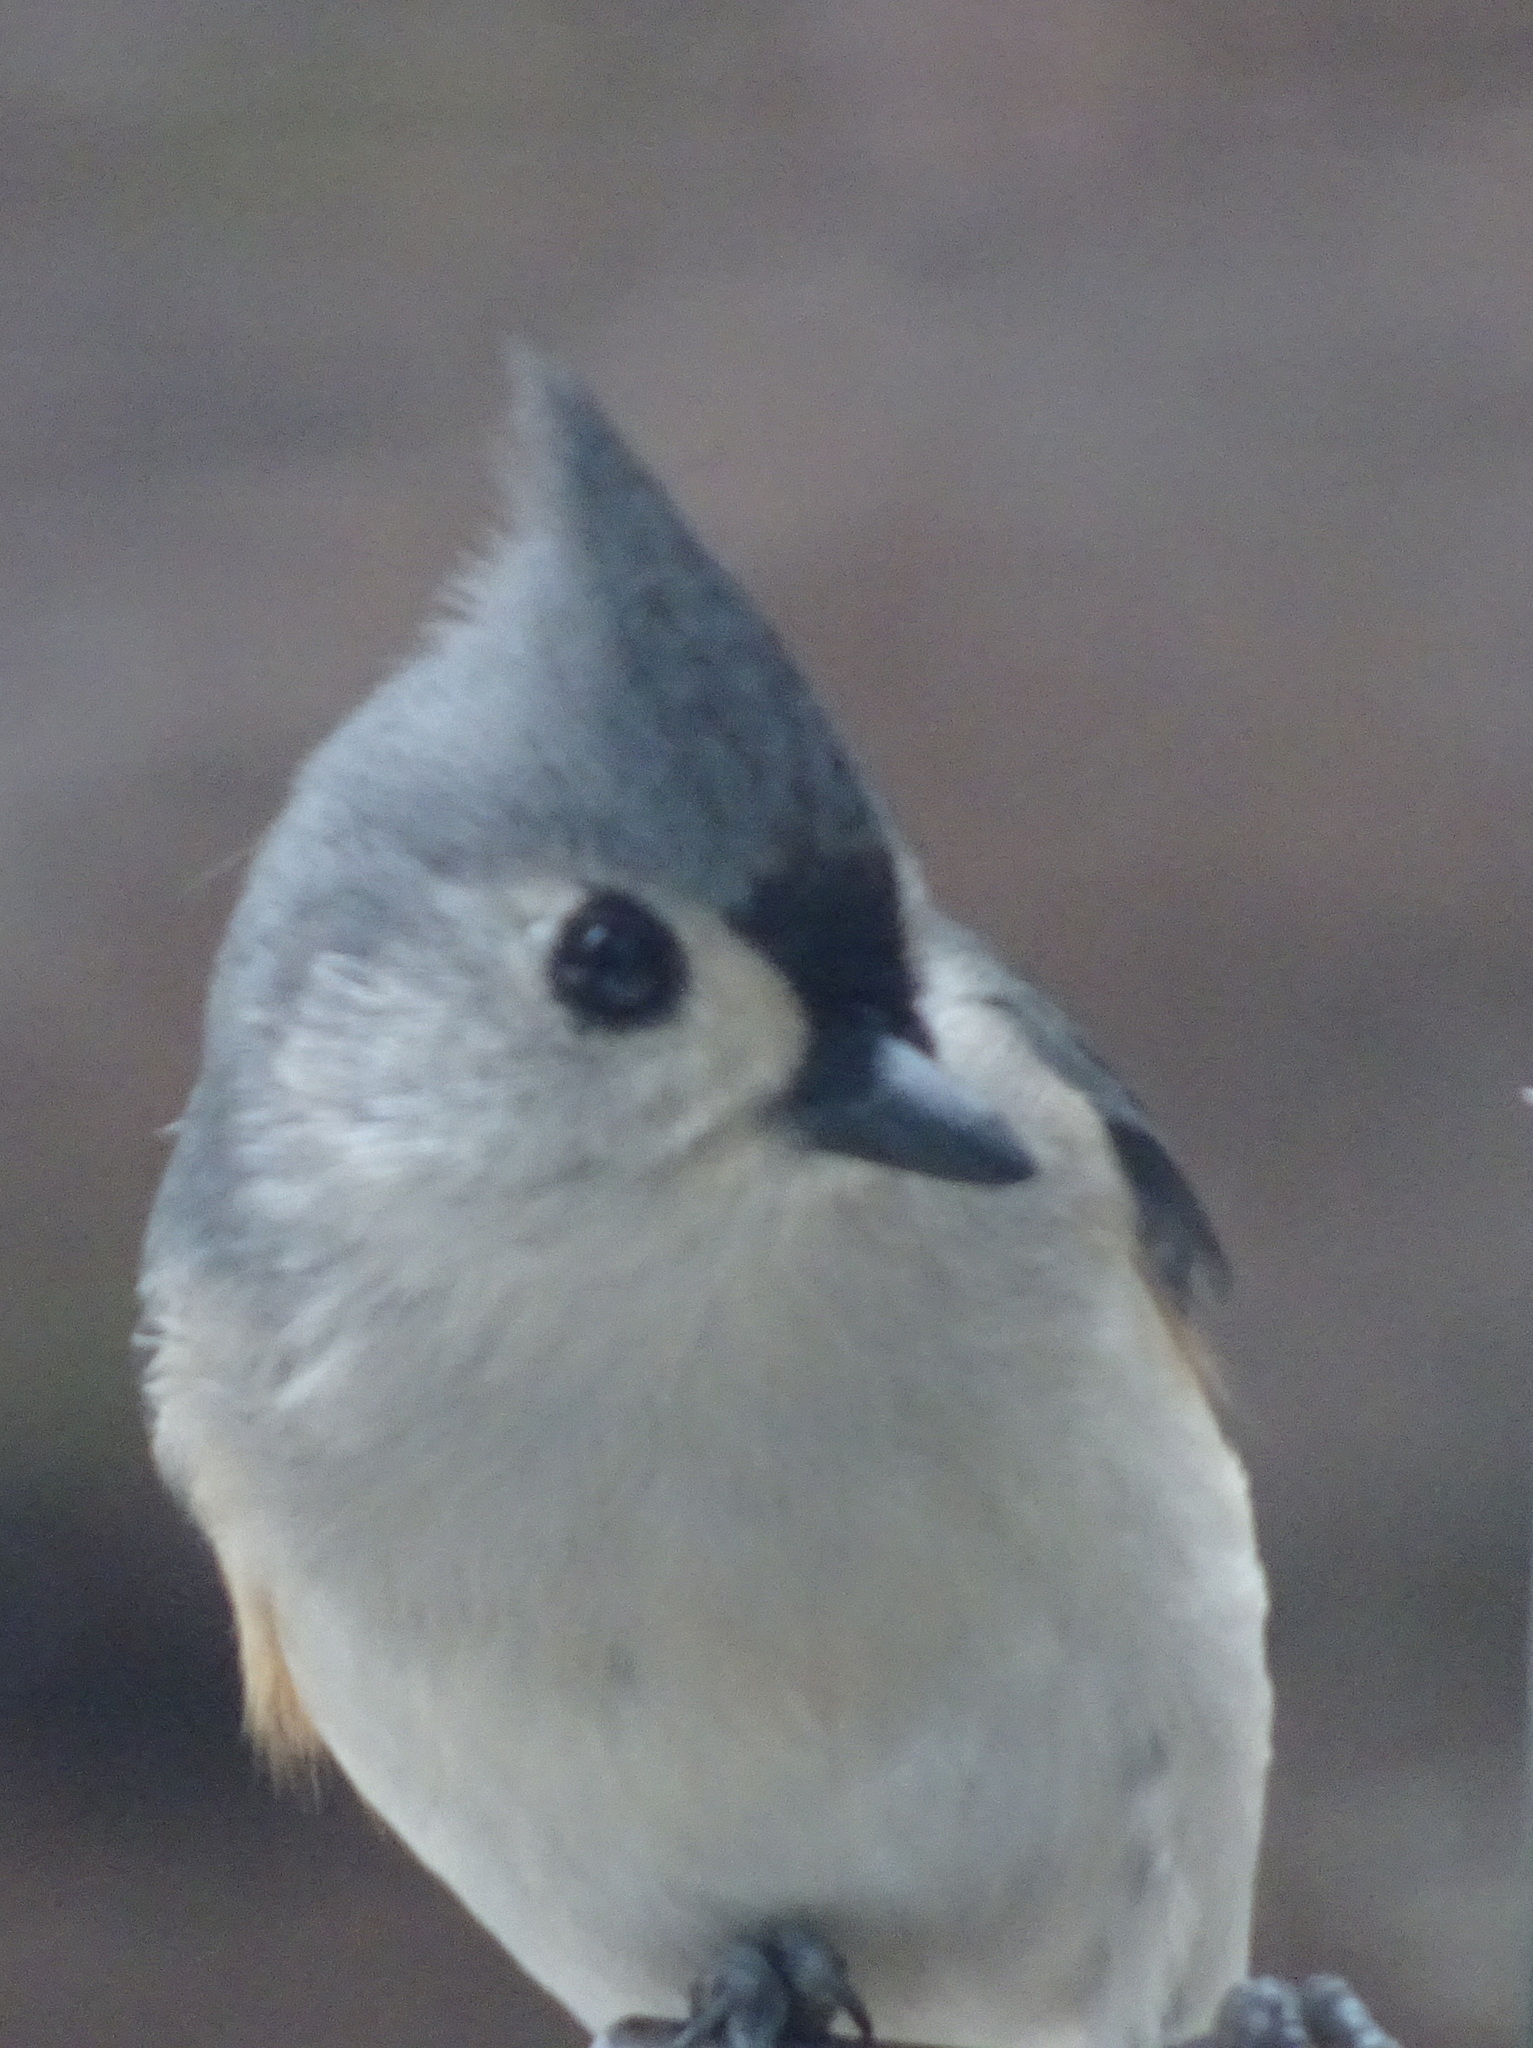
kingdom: Animalia
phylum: Chordata
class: Aves
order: Passeriformes
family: Paridae
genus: Baeolophus
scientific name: Baeolophus bicolor
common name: Tufted titmouse
